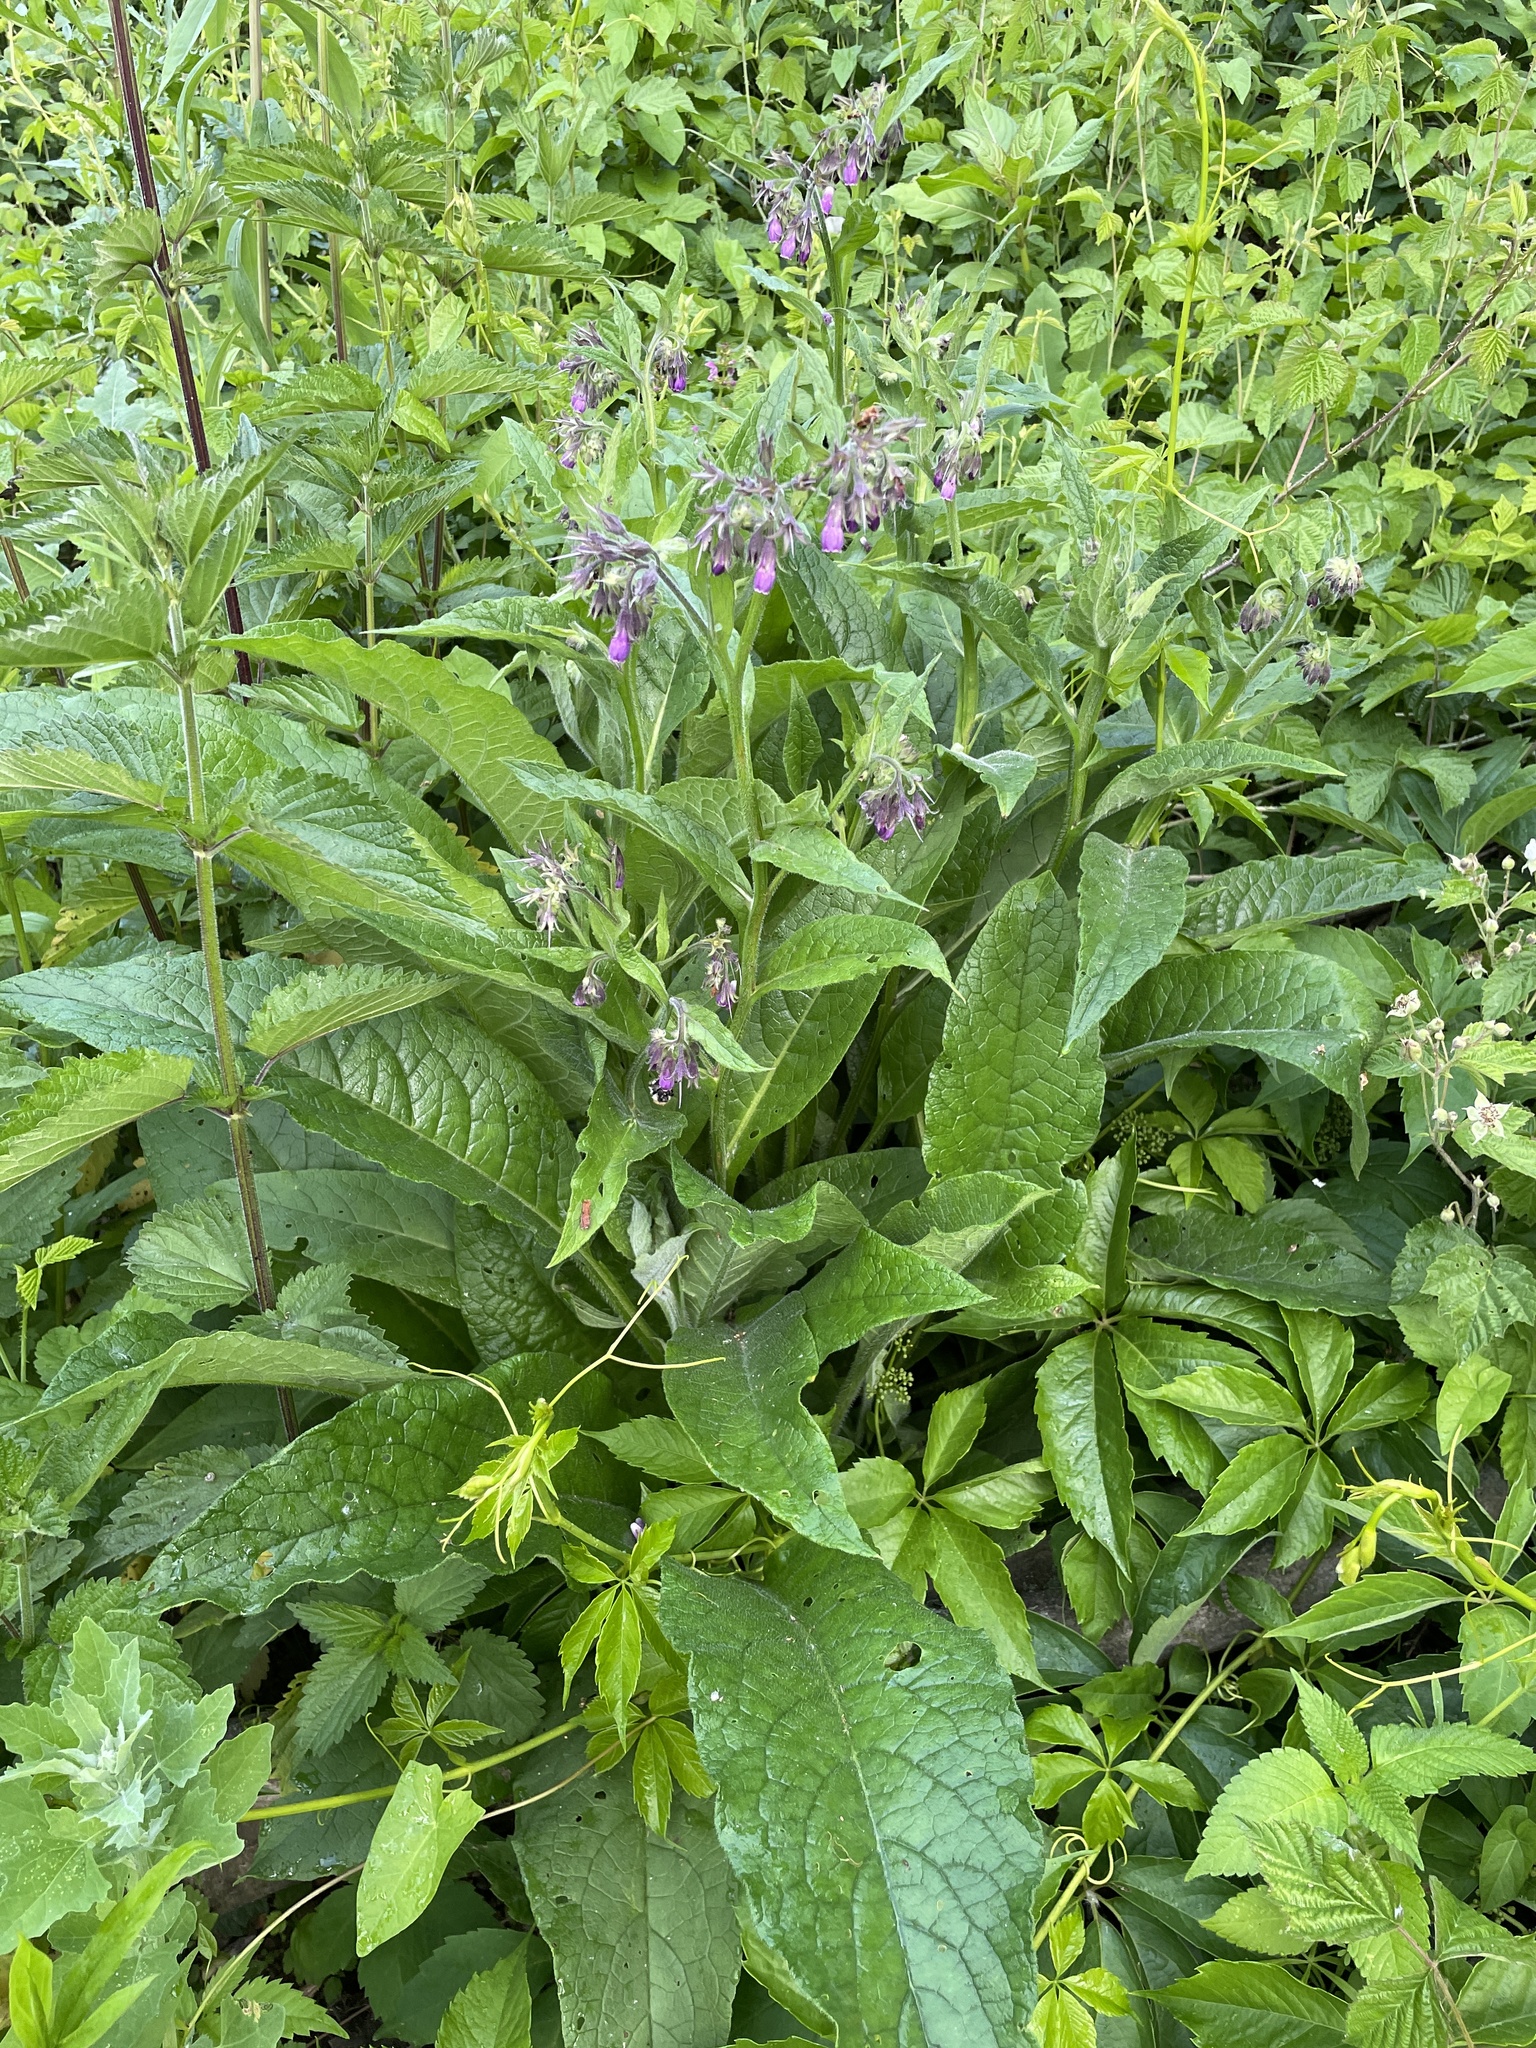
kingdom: Plantae
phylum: Tracheophyta
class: Magnoliopsida
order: Boraginales
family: Boraginaceae
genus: Symphytum
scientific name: Symphytum officinale
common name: Common comfrey
